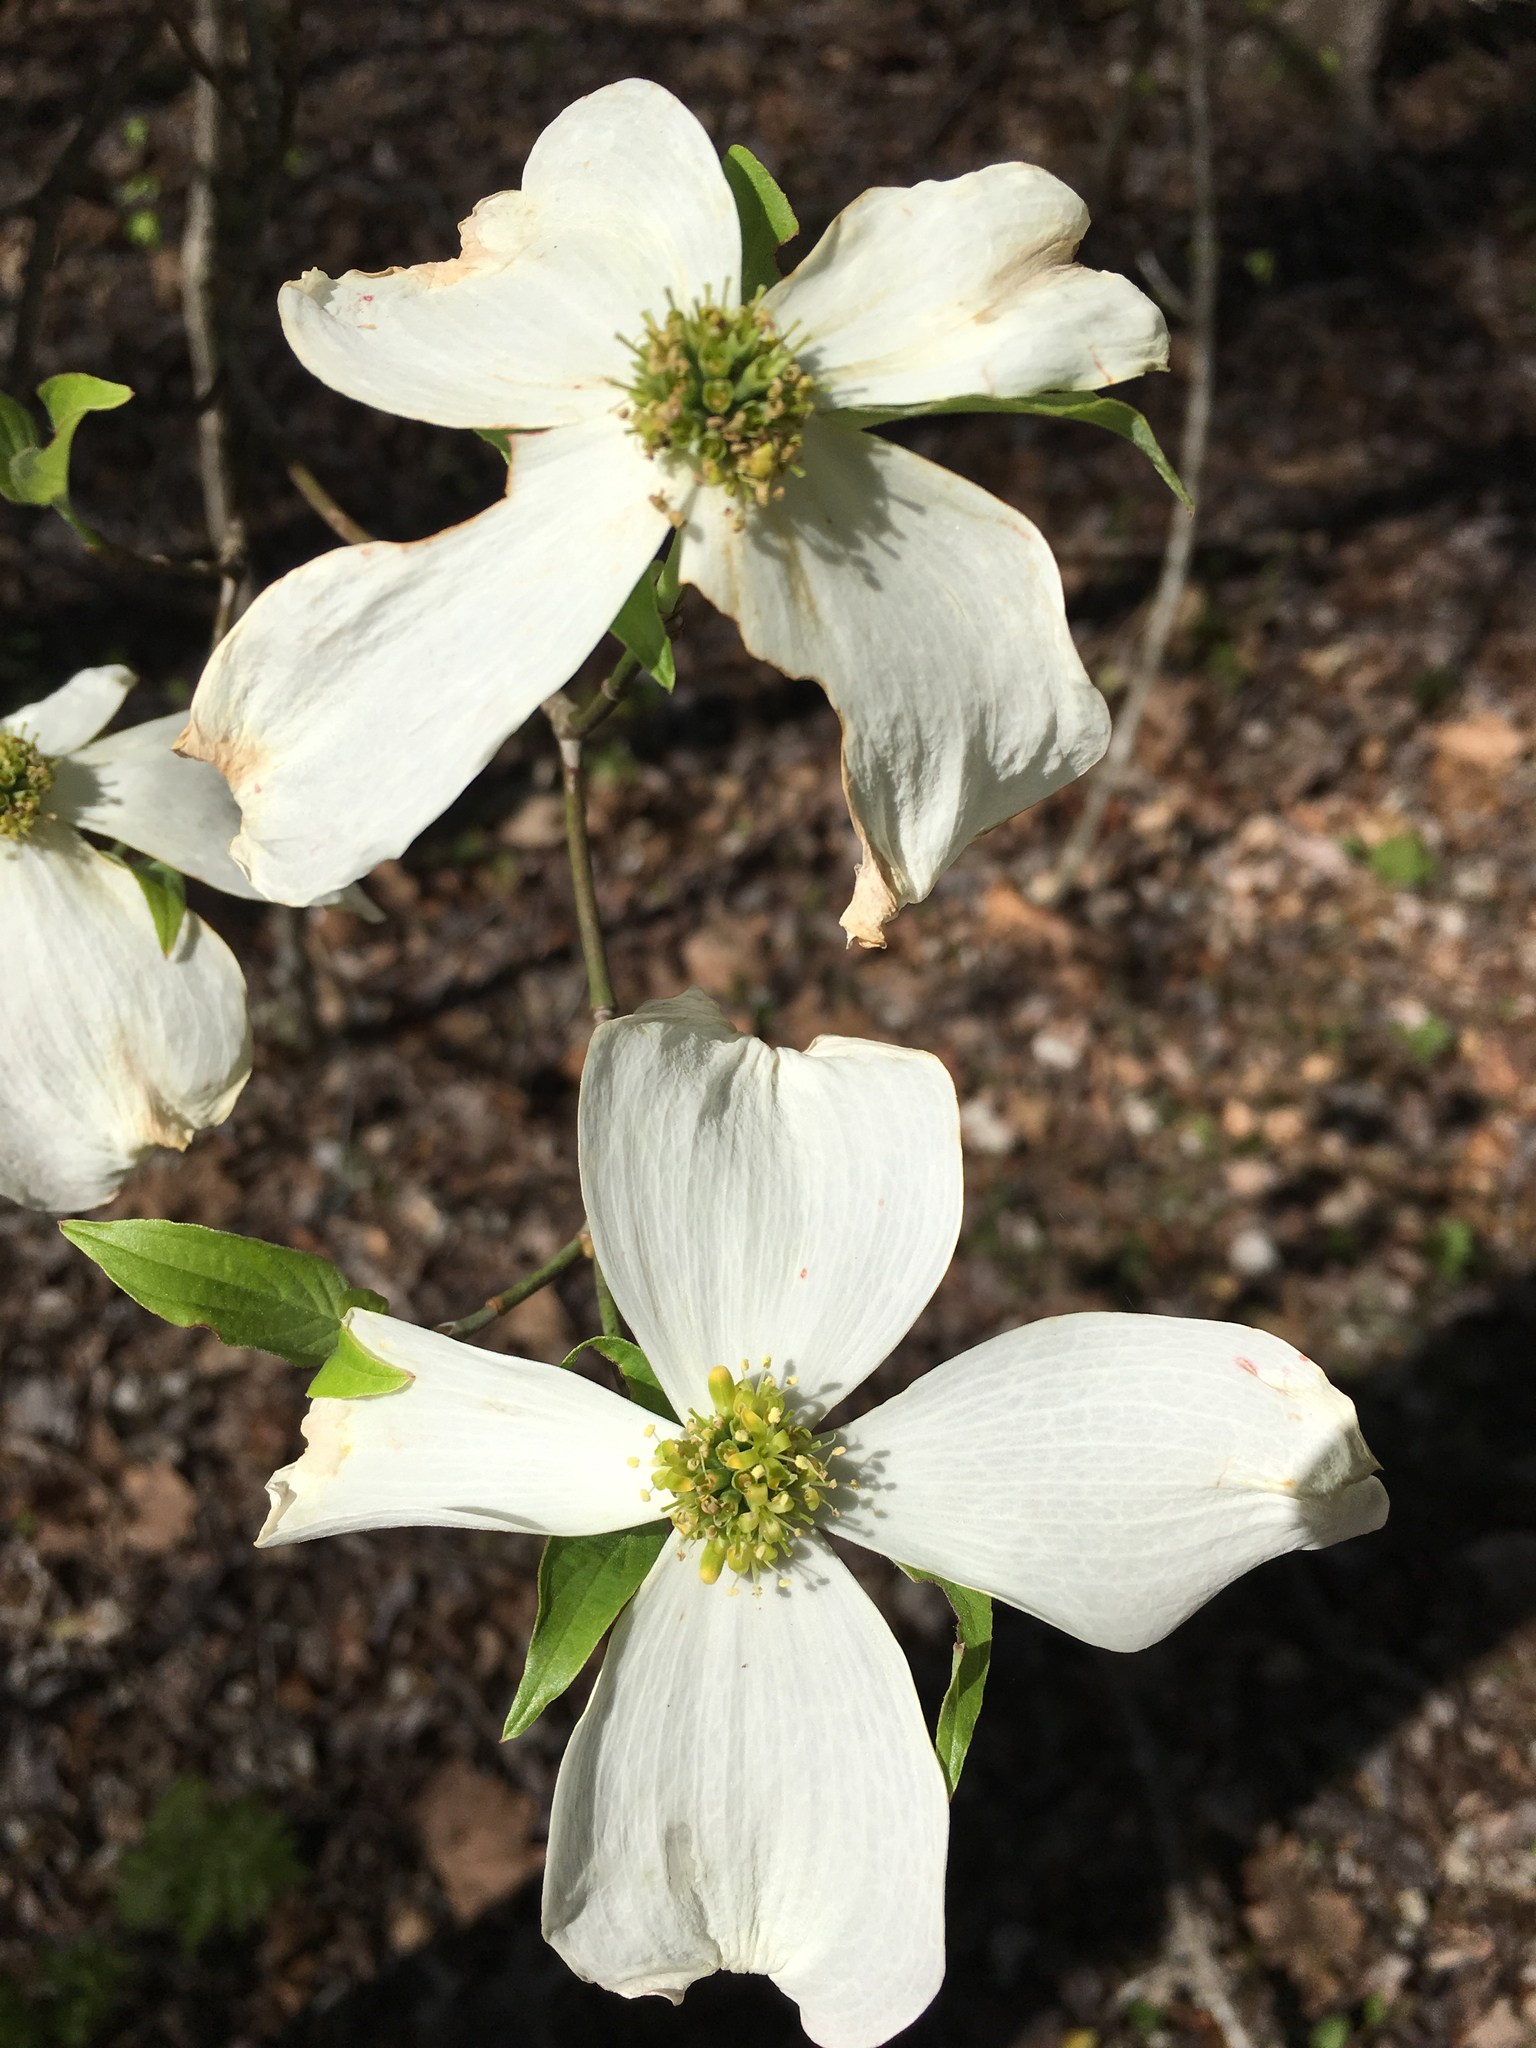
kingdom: Plantae
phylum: Tracheophyta
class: Magnoliopsida
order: Cornales
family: Cornaceae
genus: Cornus
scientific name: Cornus florida
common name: Flowering dogwood
